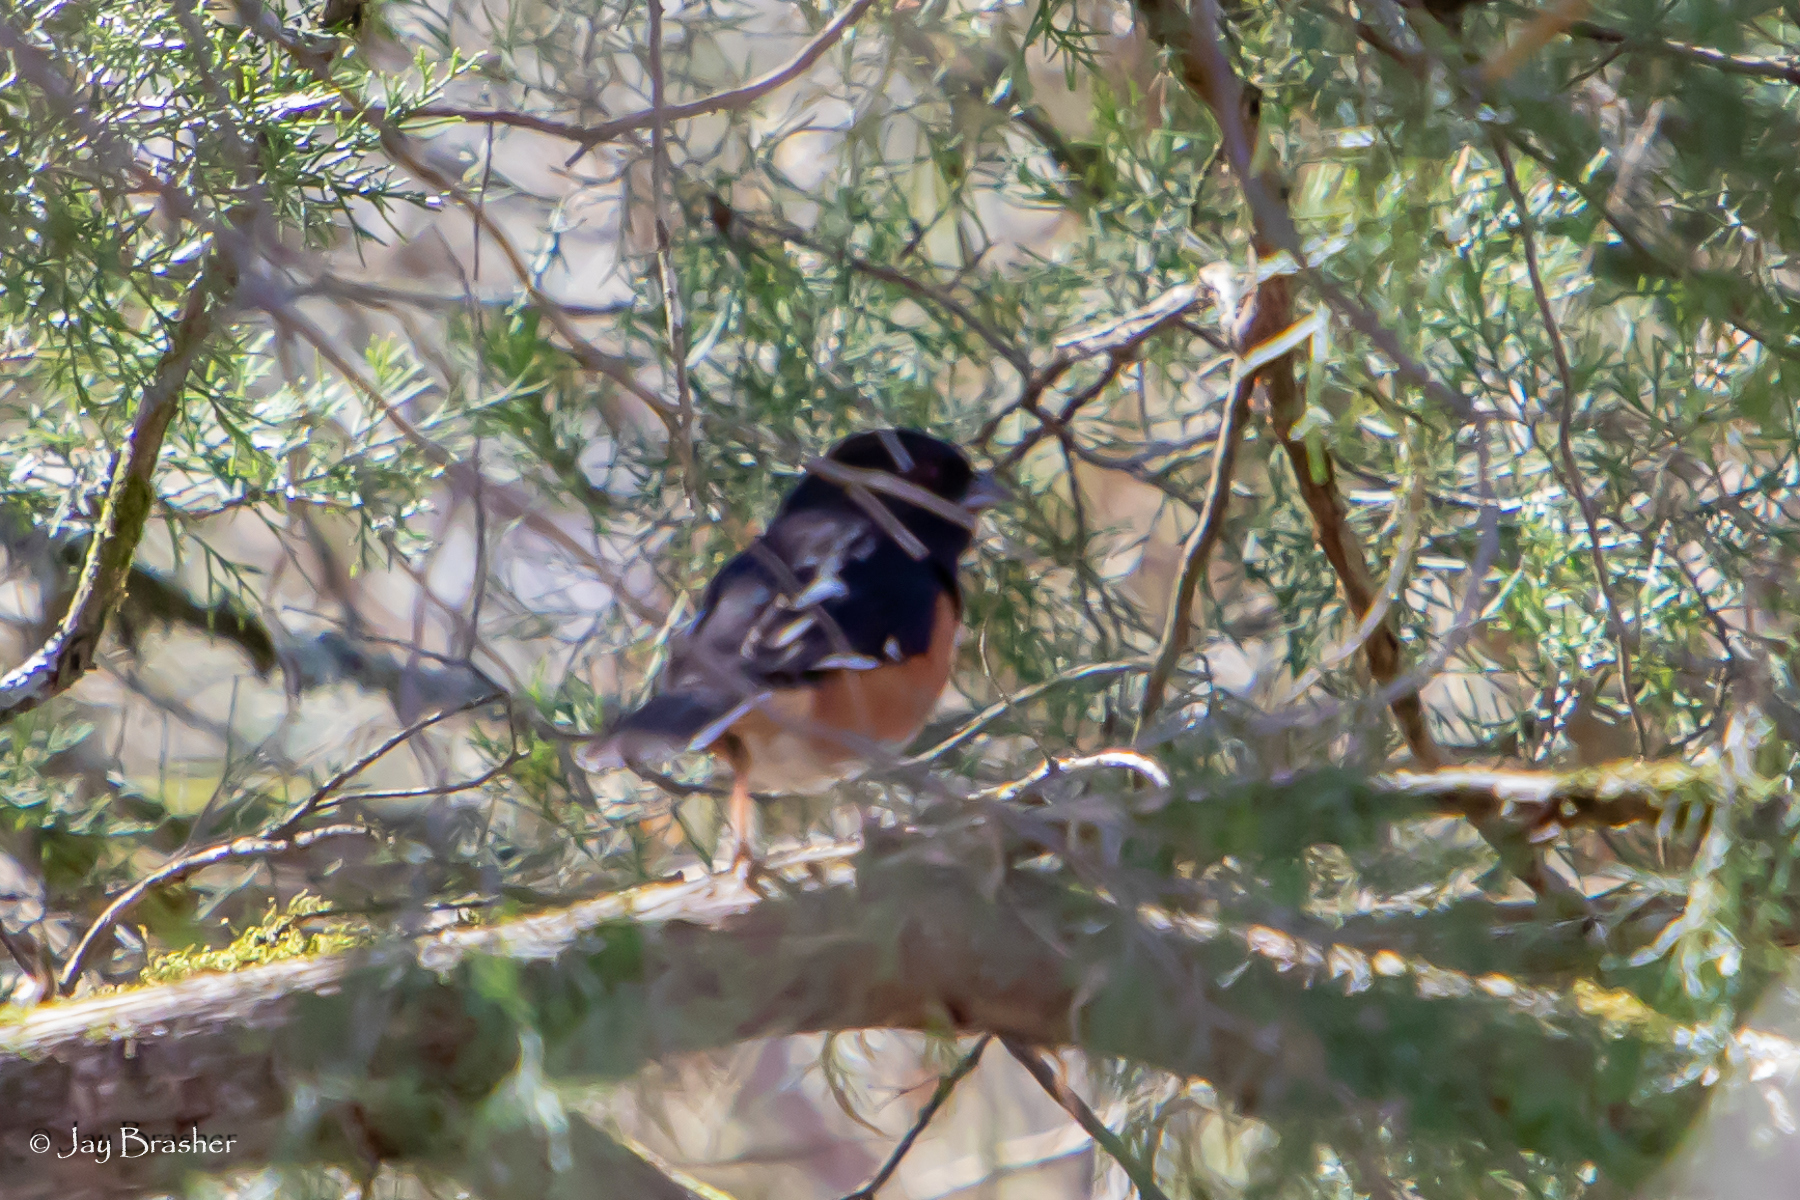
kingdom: Animalia
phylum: Chordata
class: Aves
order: Passeriformes
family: Passerellidae
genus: Pipilo
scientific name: Pipilo erythrophthalmus
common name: Eastern towhee
